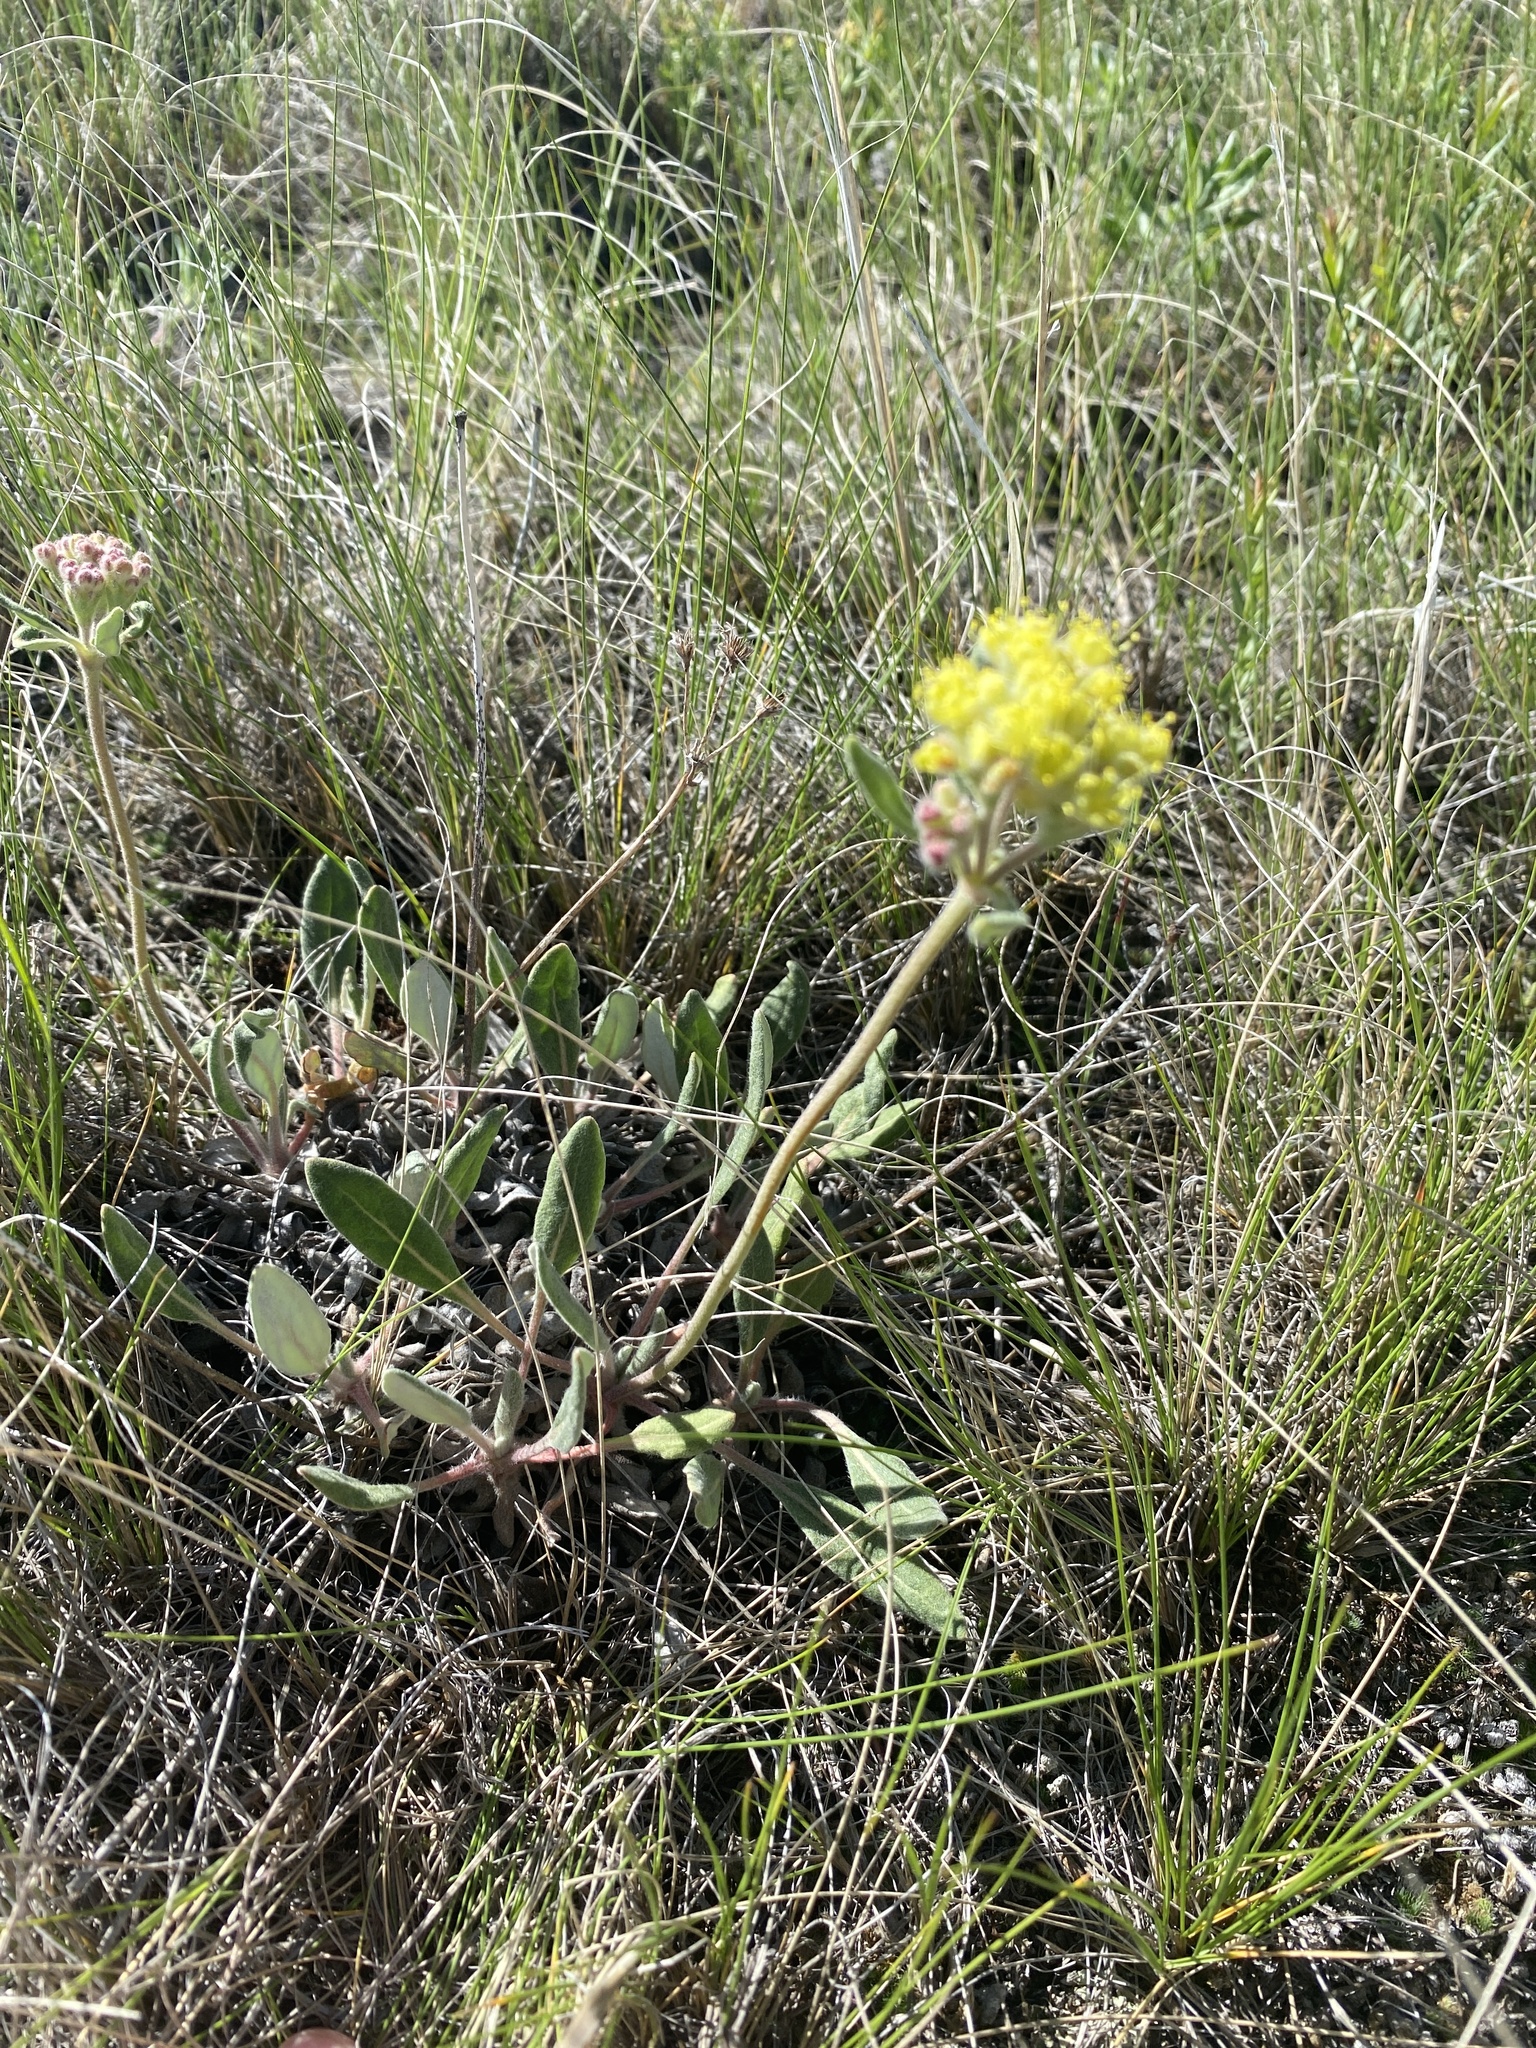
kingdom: Plantae
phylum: Tracheophyta
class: Magnoliopsida
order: Caryophyllales
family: Polygonaceae
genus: Eriogonum
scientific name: Eriogonum flavum
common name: Alpine golden wild buckwheat
